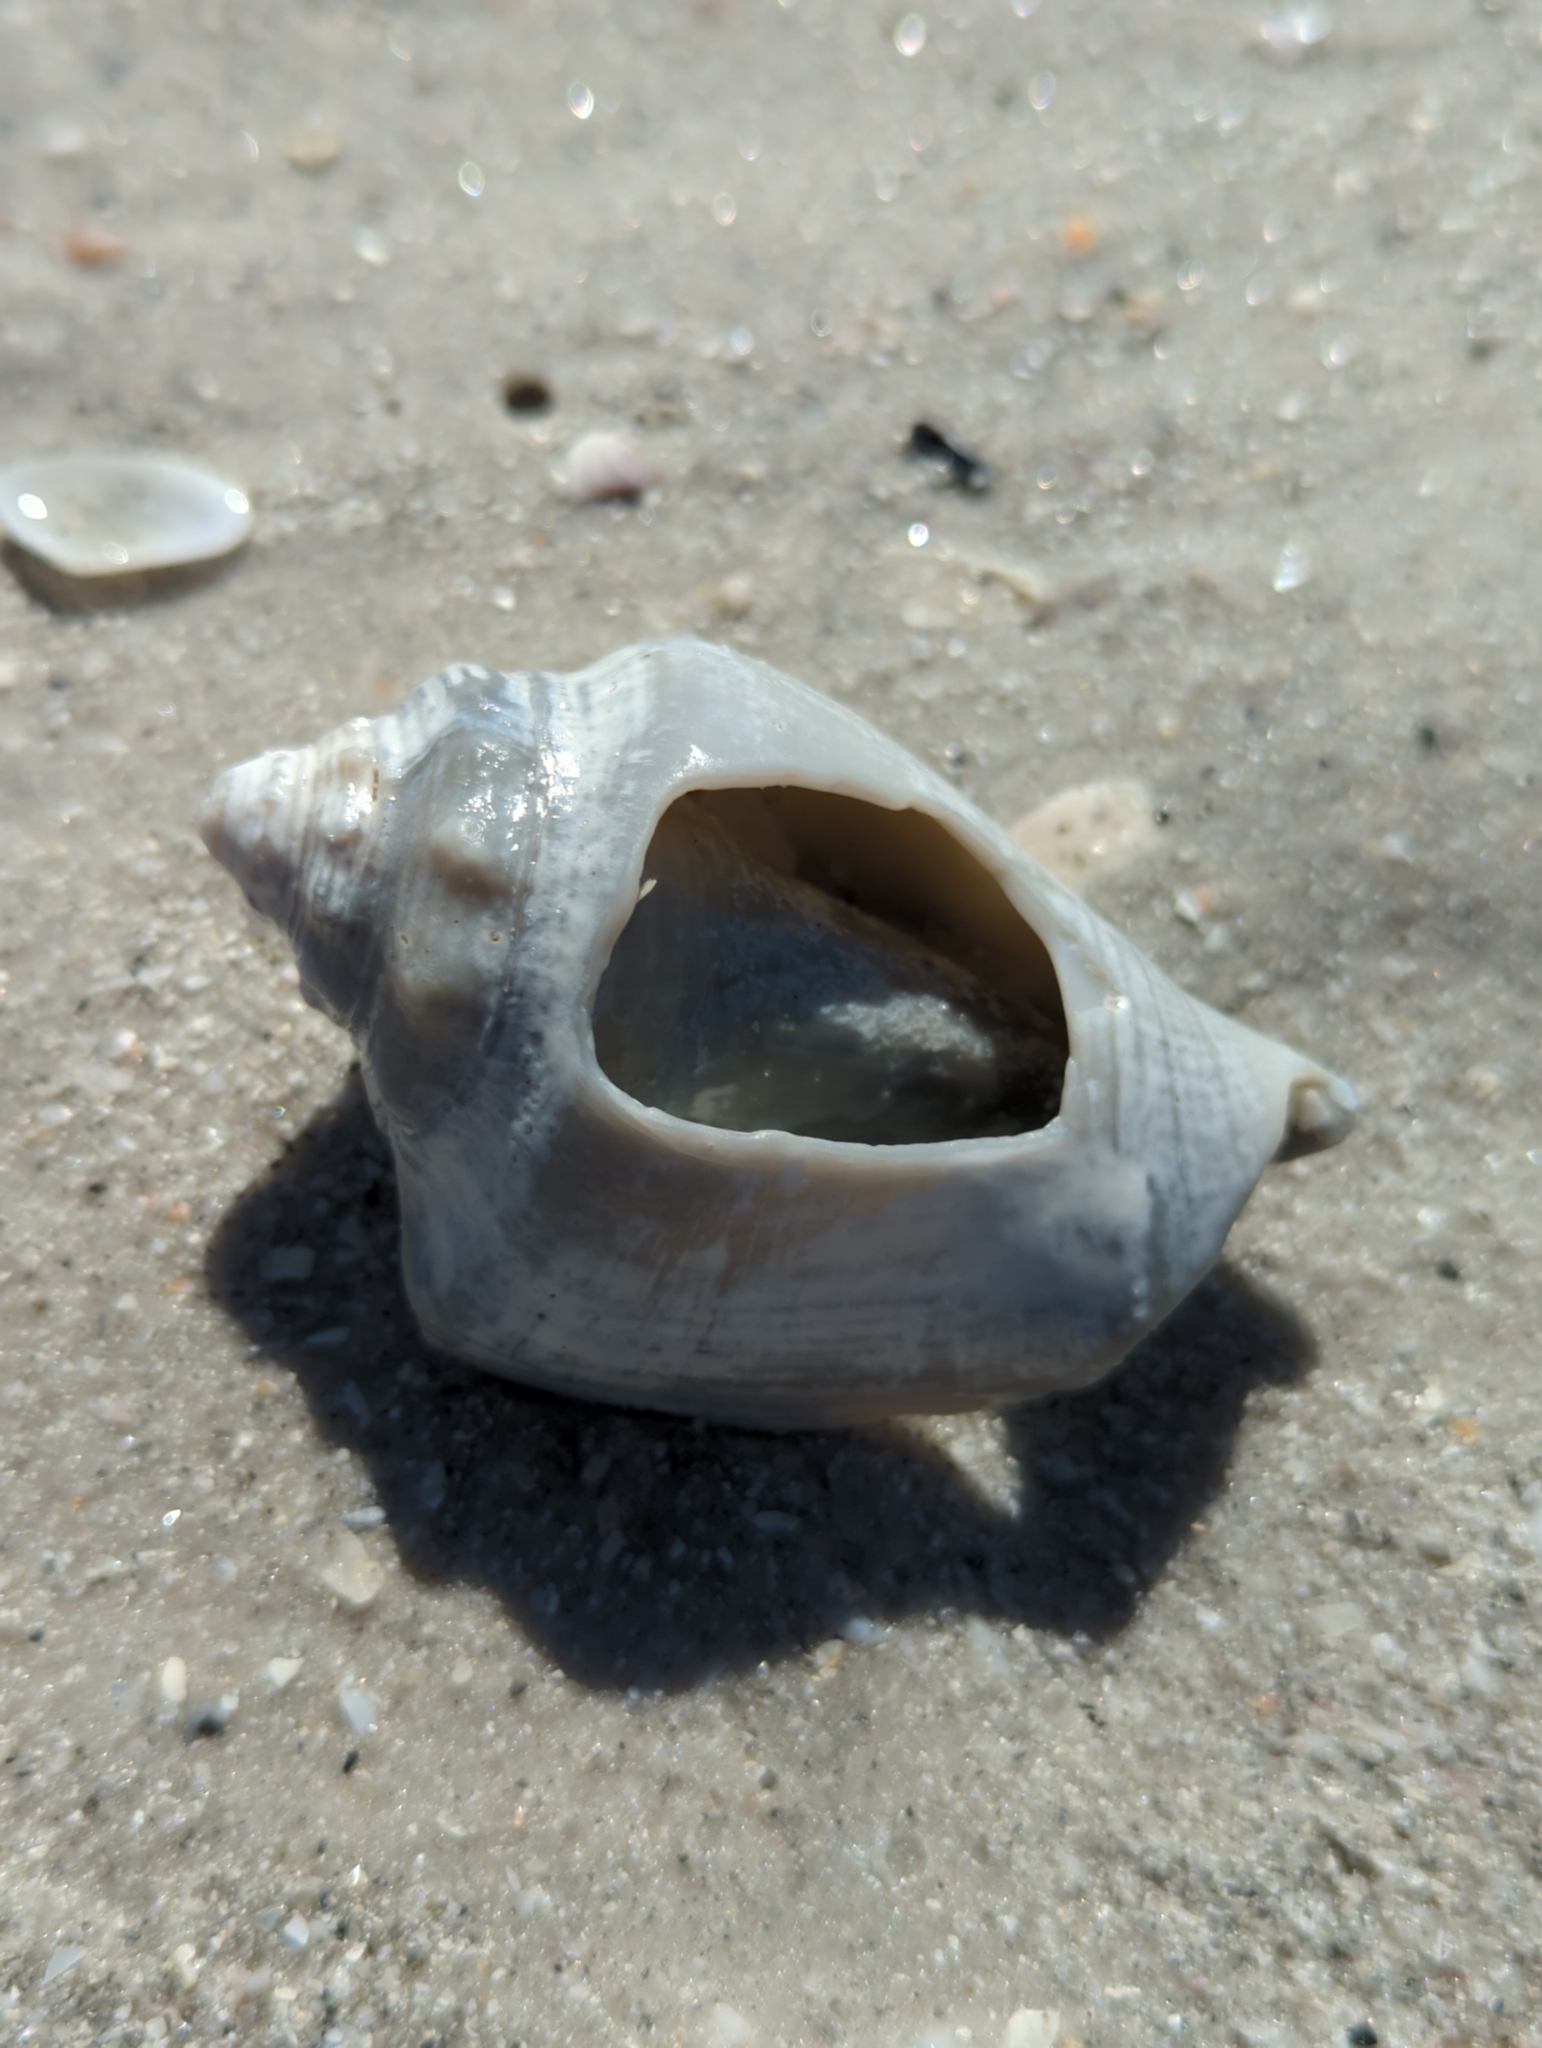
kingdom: Animalia
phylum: Mollusca
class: Gastropoda
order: Littorinimorpha
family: Strombidae
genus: Strombus
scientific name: Strombus alatus
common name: Florida fighting conch
